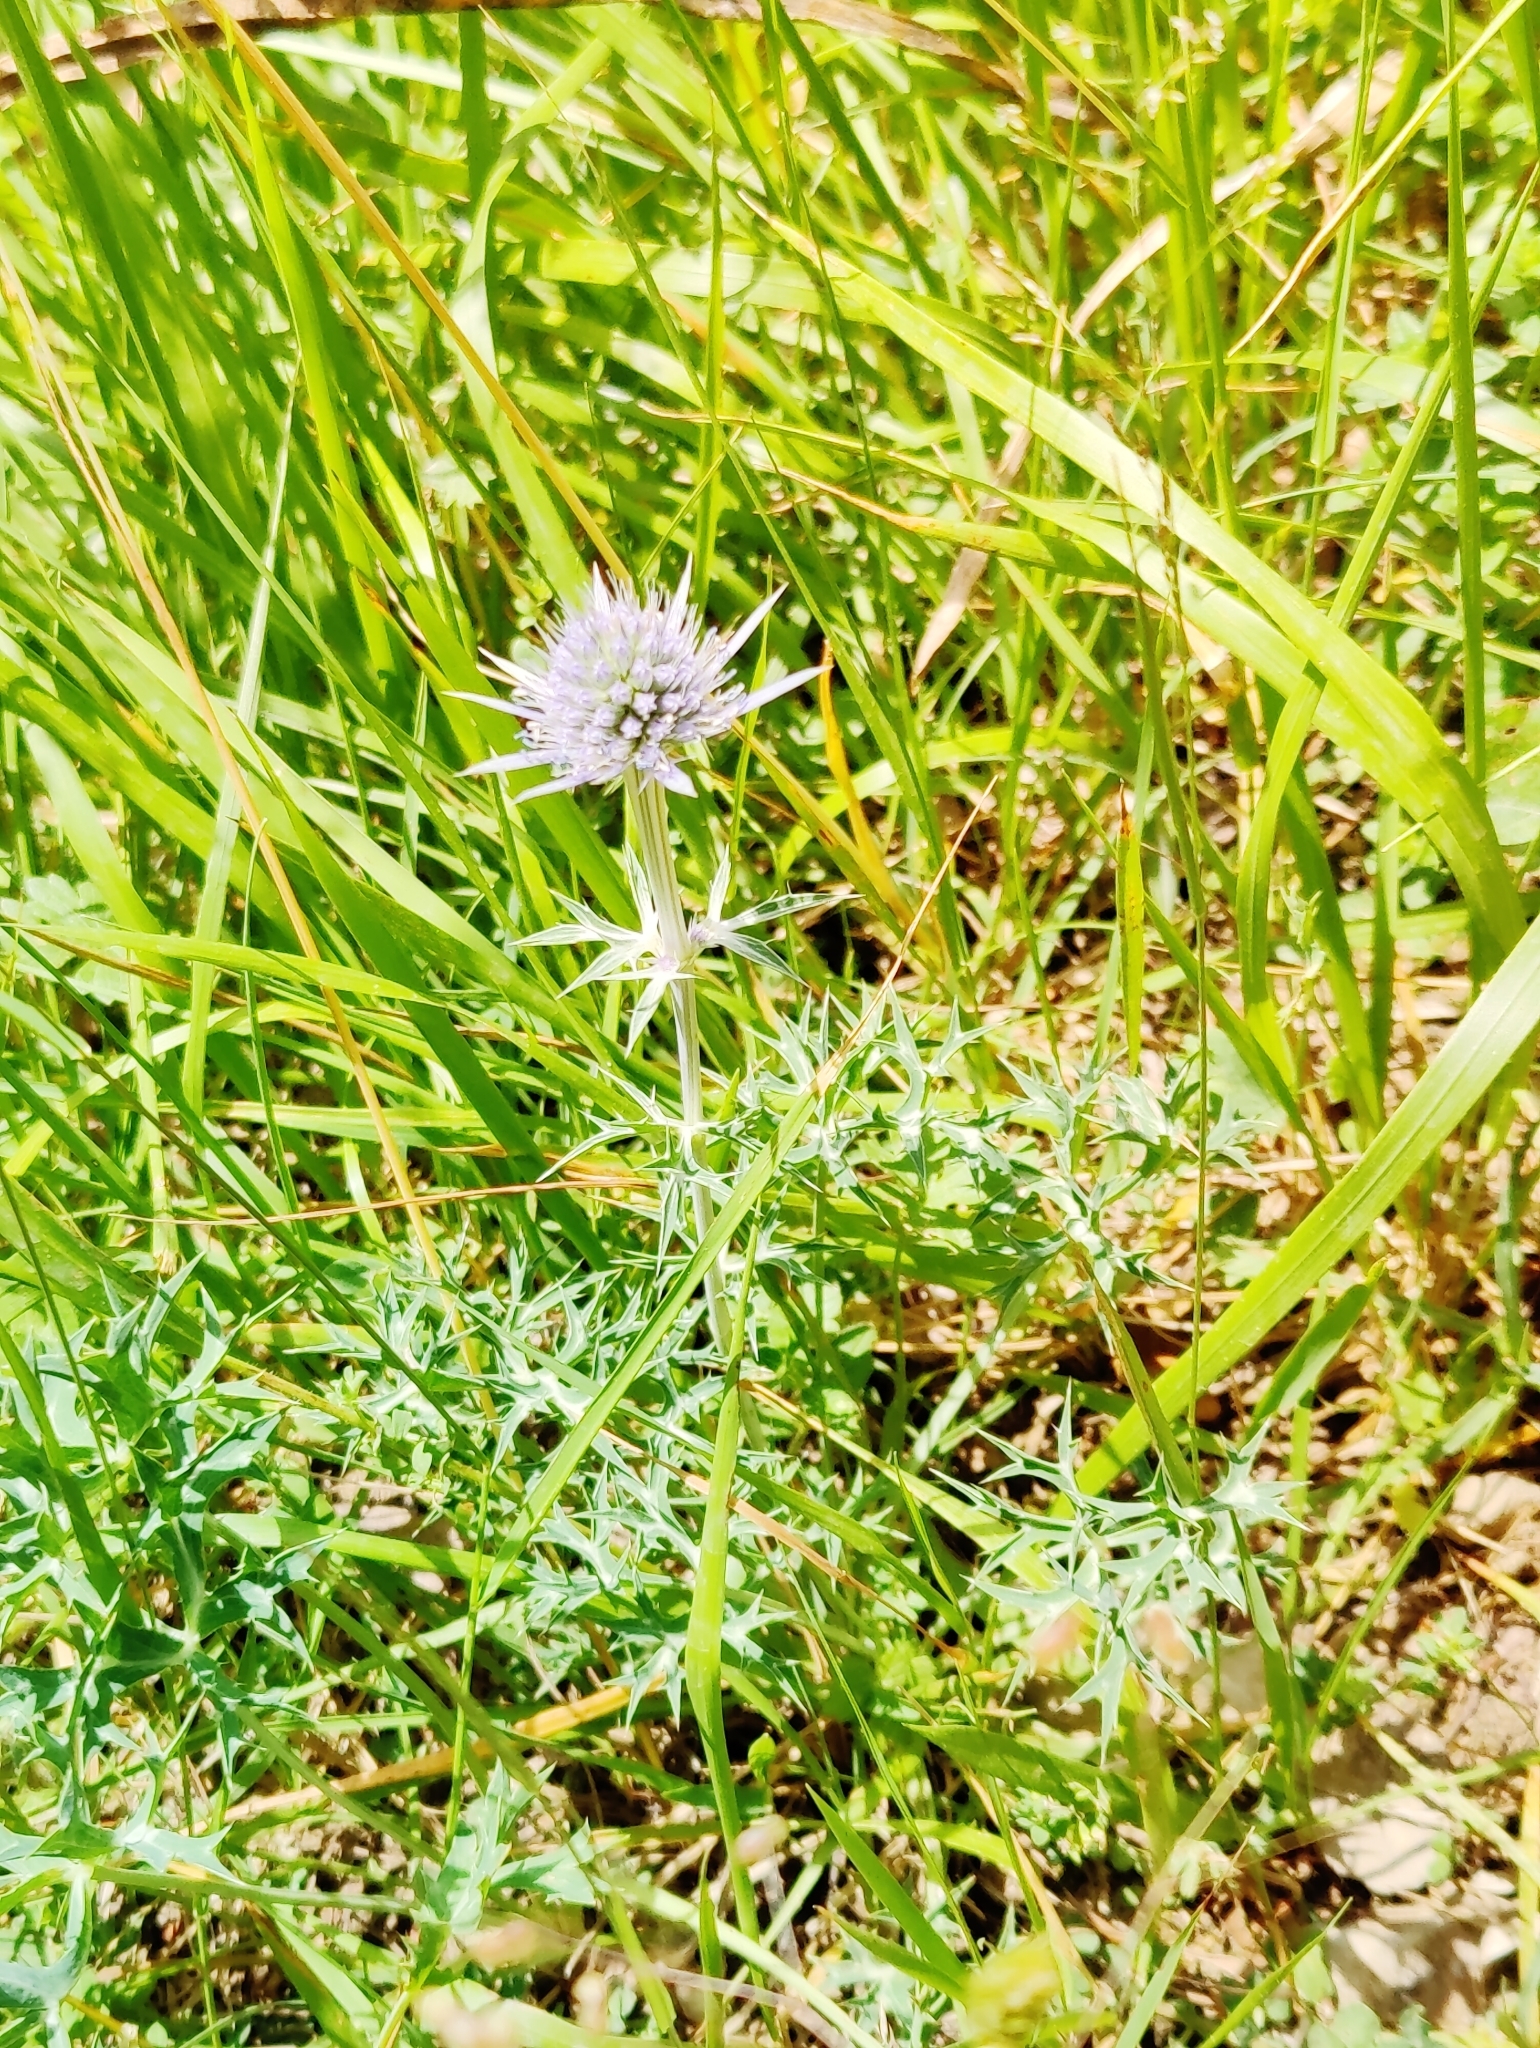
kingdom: Plantae
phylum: Tracheophyta
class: Magnoliopsida
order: Apiales
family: Apiaceae
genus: Eryngium
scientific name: Eryngium bourgatii
